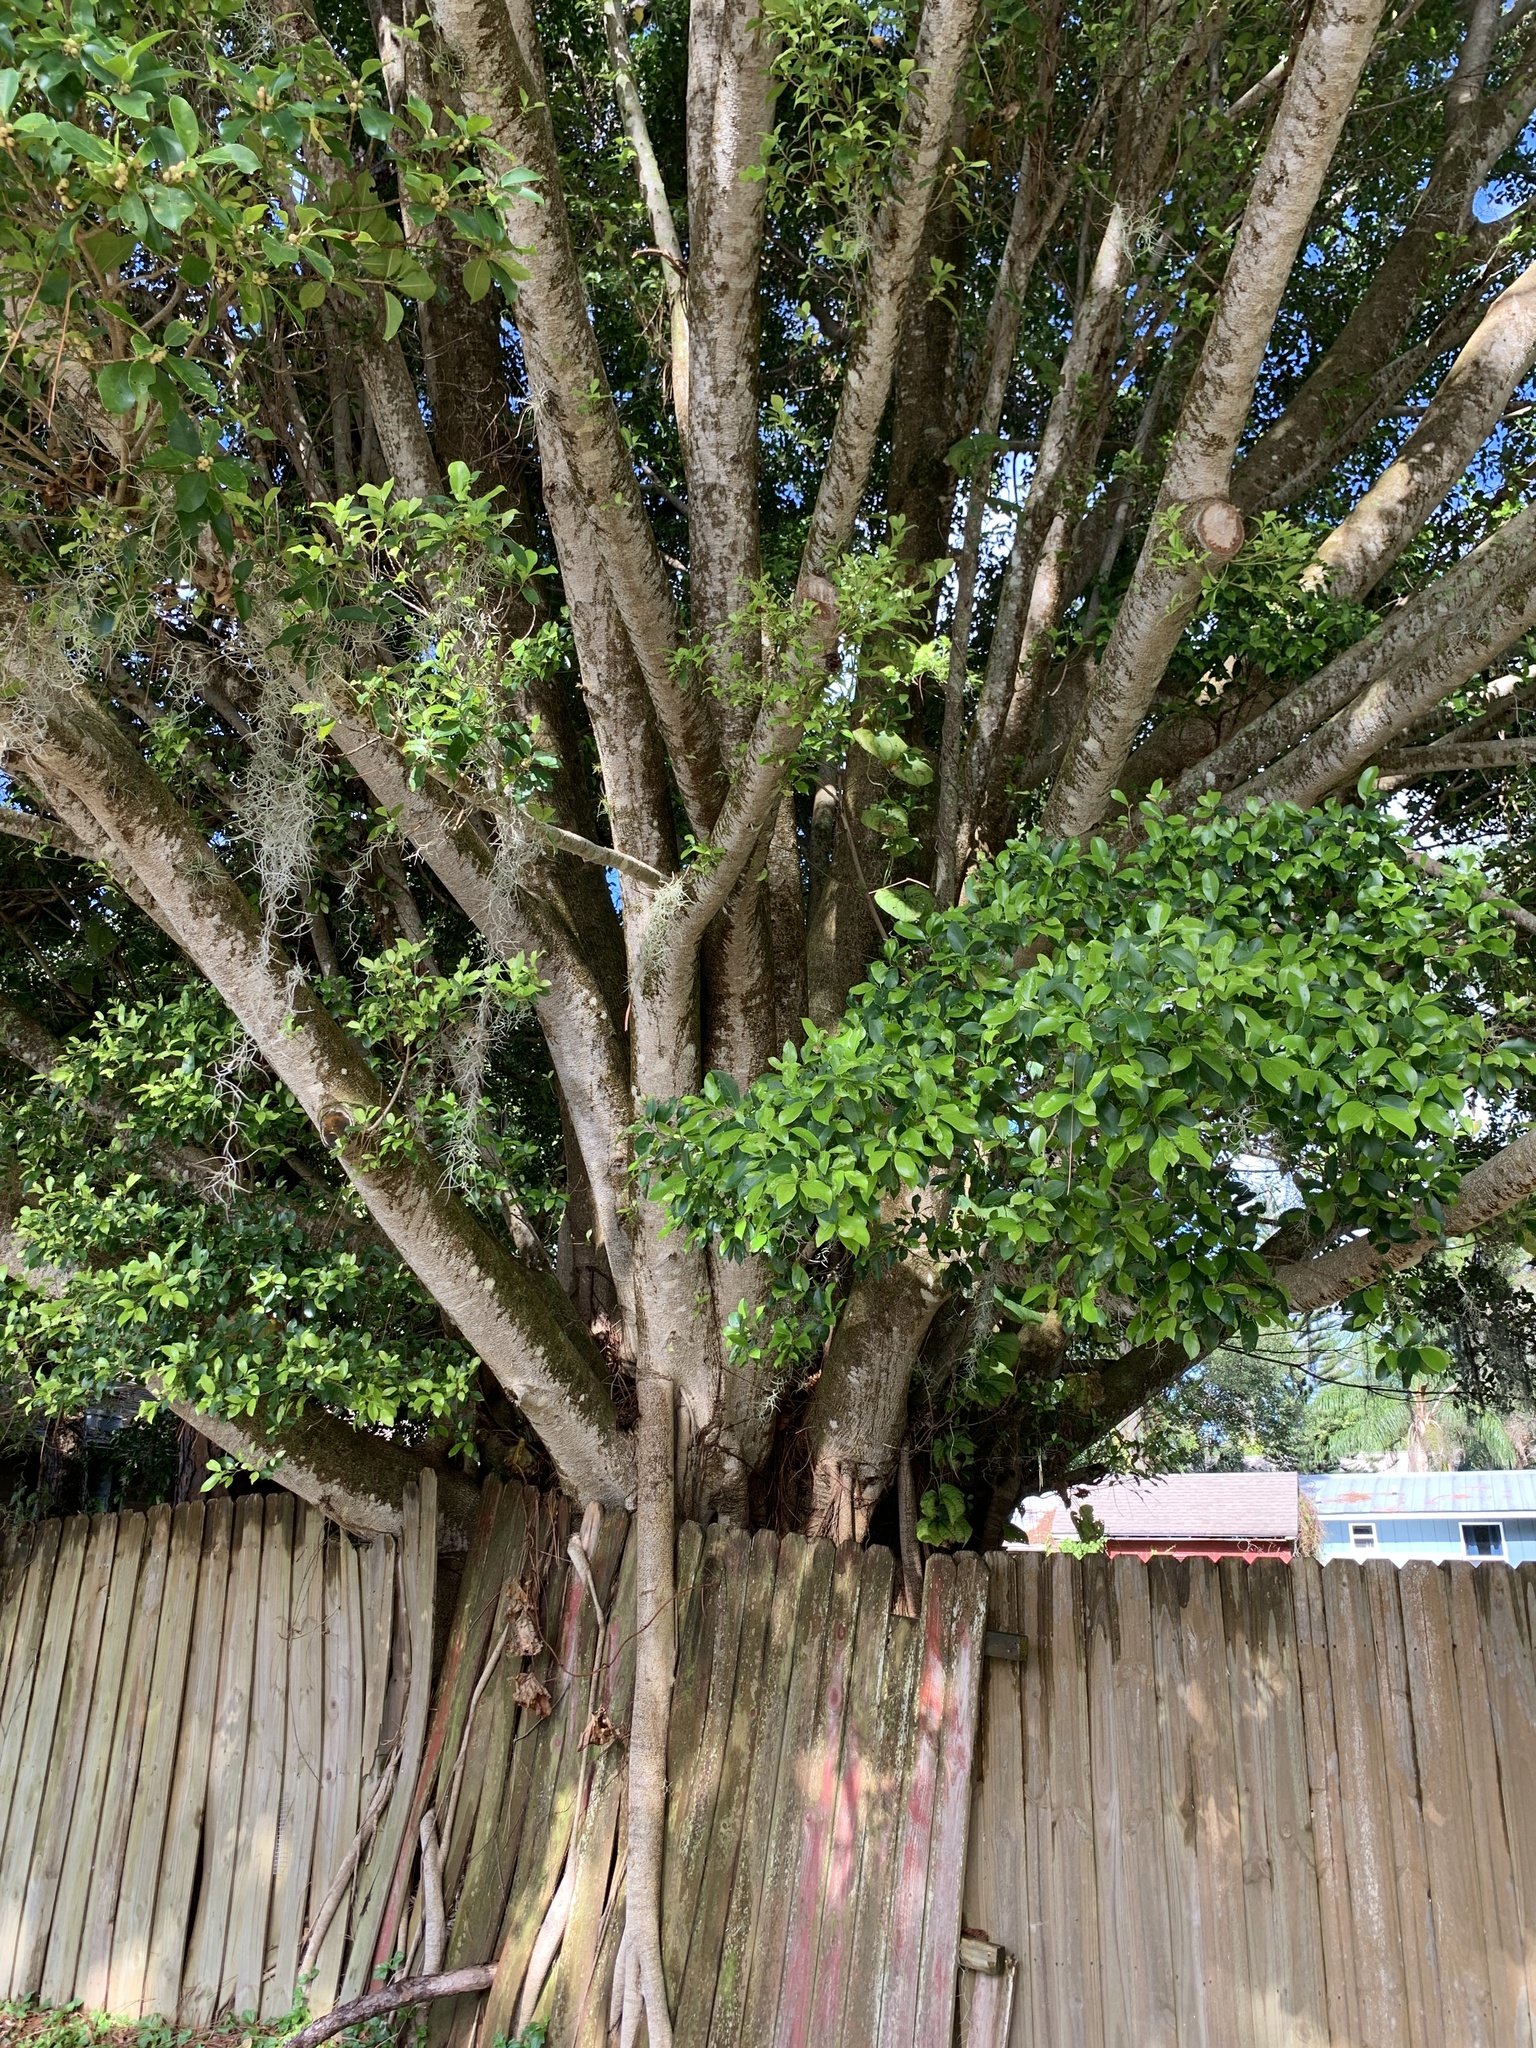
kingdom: Plantae
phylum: Tracheophyta
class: Magnoliopsida
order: Rosales
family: Moraceae
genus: Ficus
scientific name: Ficus microcarpa
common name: Chinese banyan
